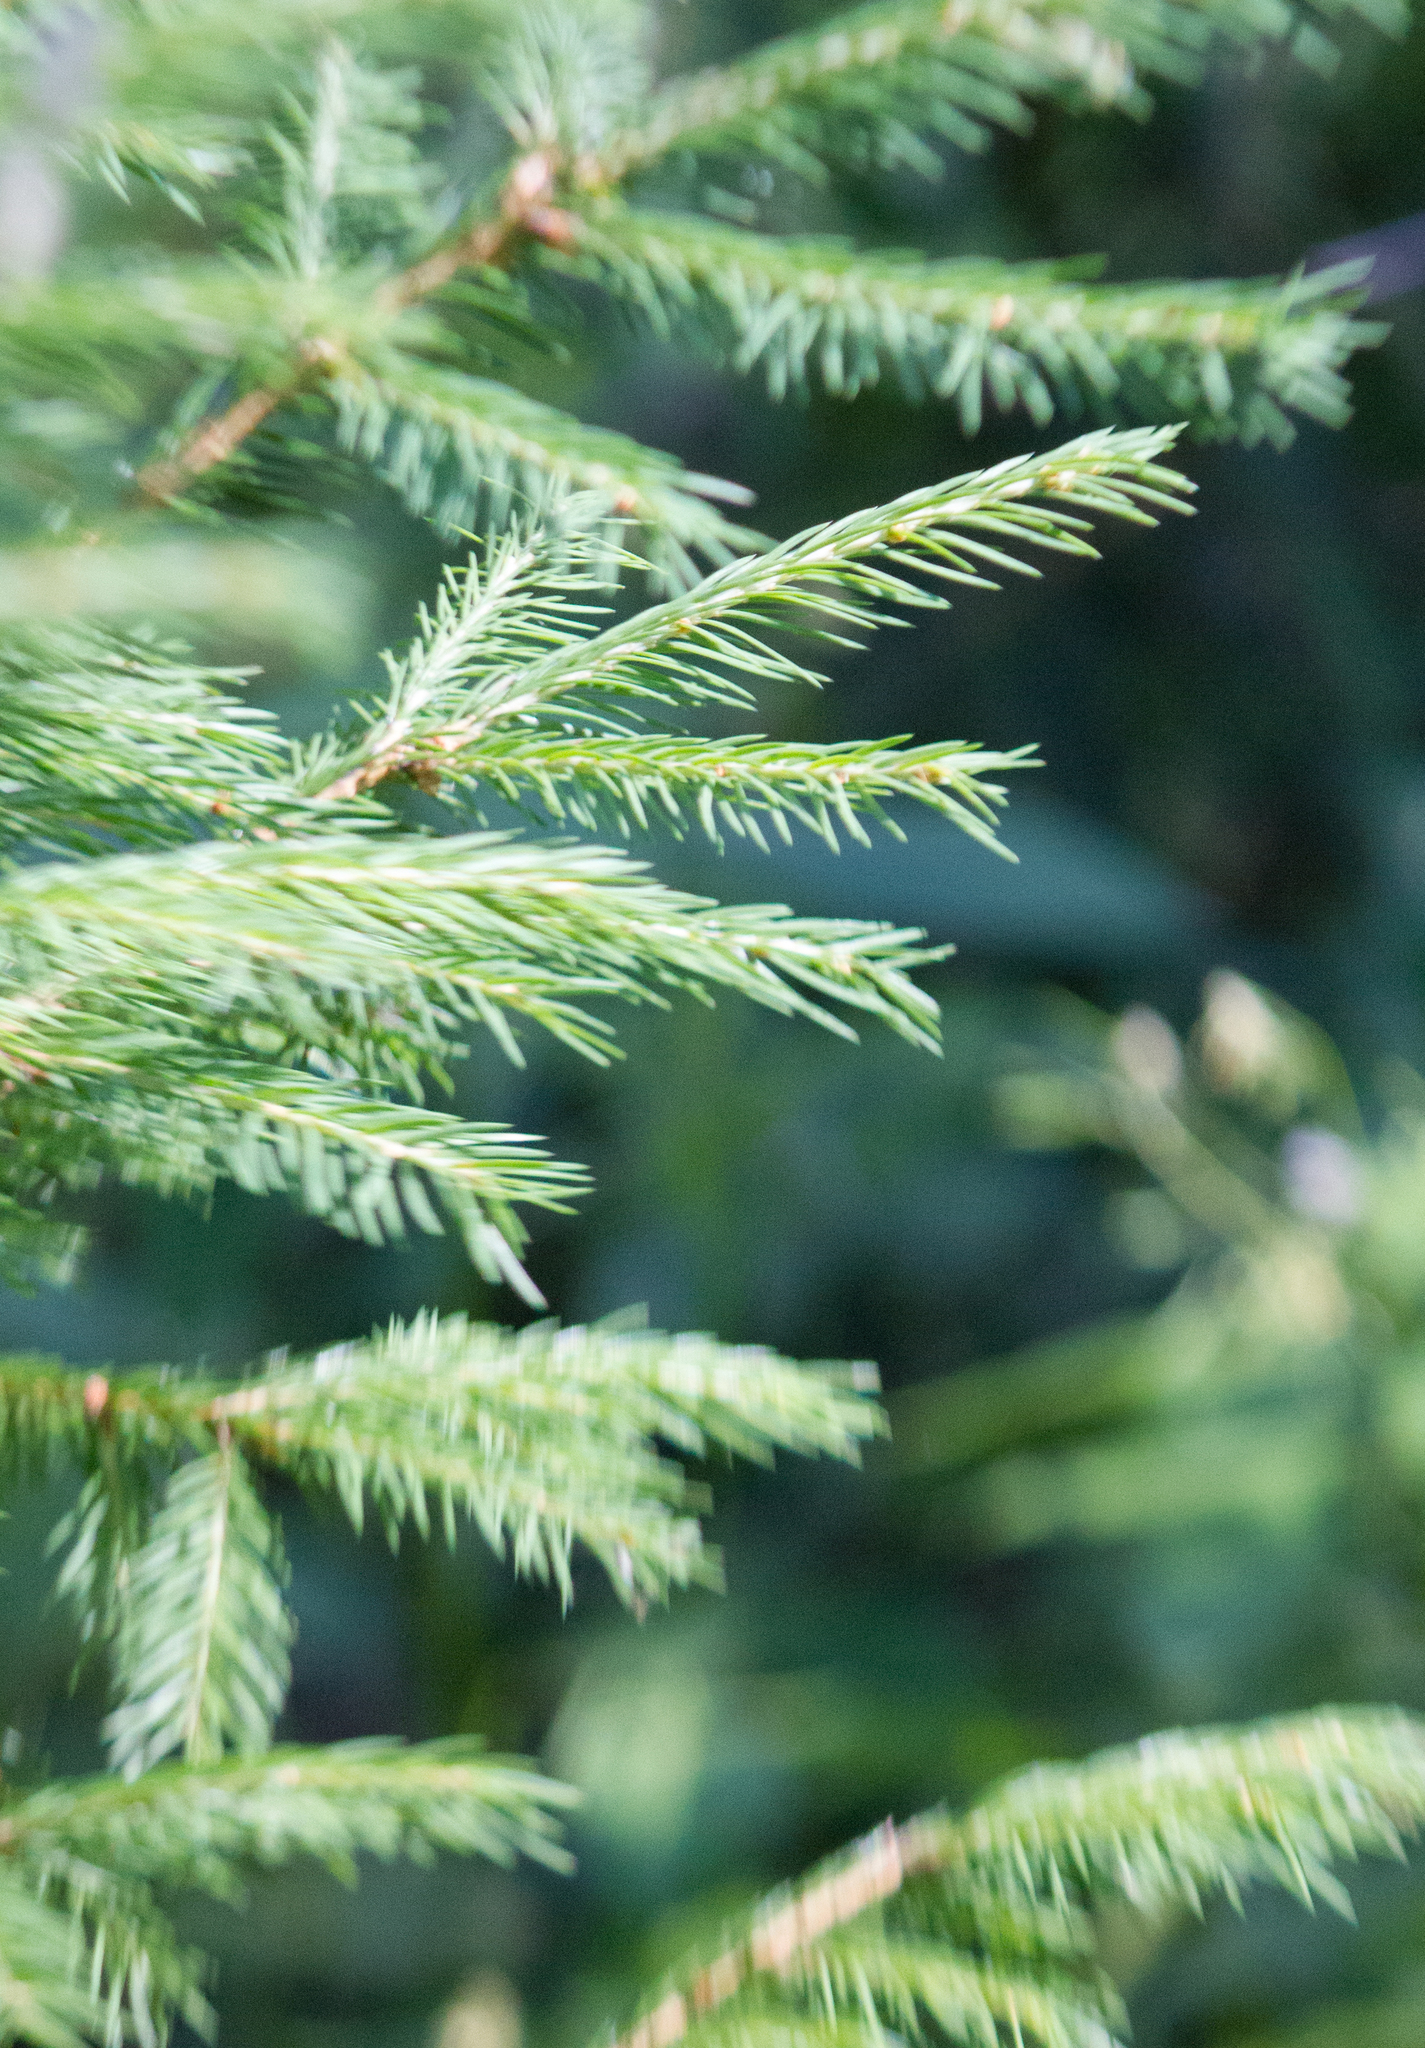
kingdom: Plantae
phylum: Tracheophyta
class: Pinopsida
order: Pinales
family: Pinaceae
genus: Picea
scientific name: Picea abies
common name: Norway spruce
